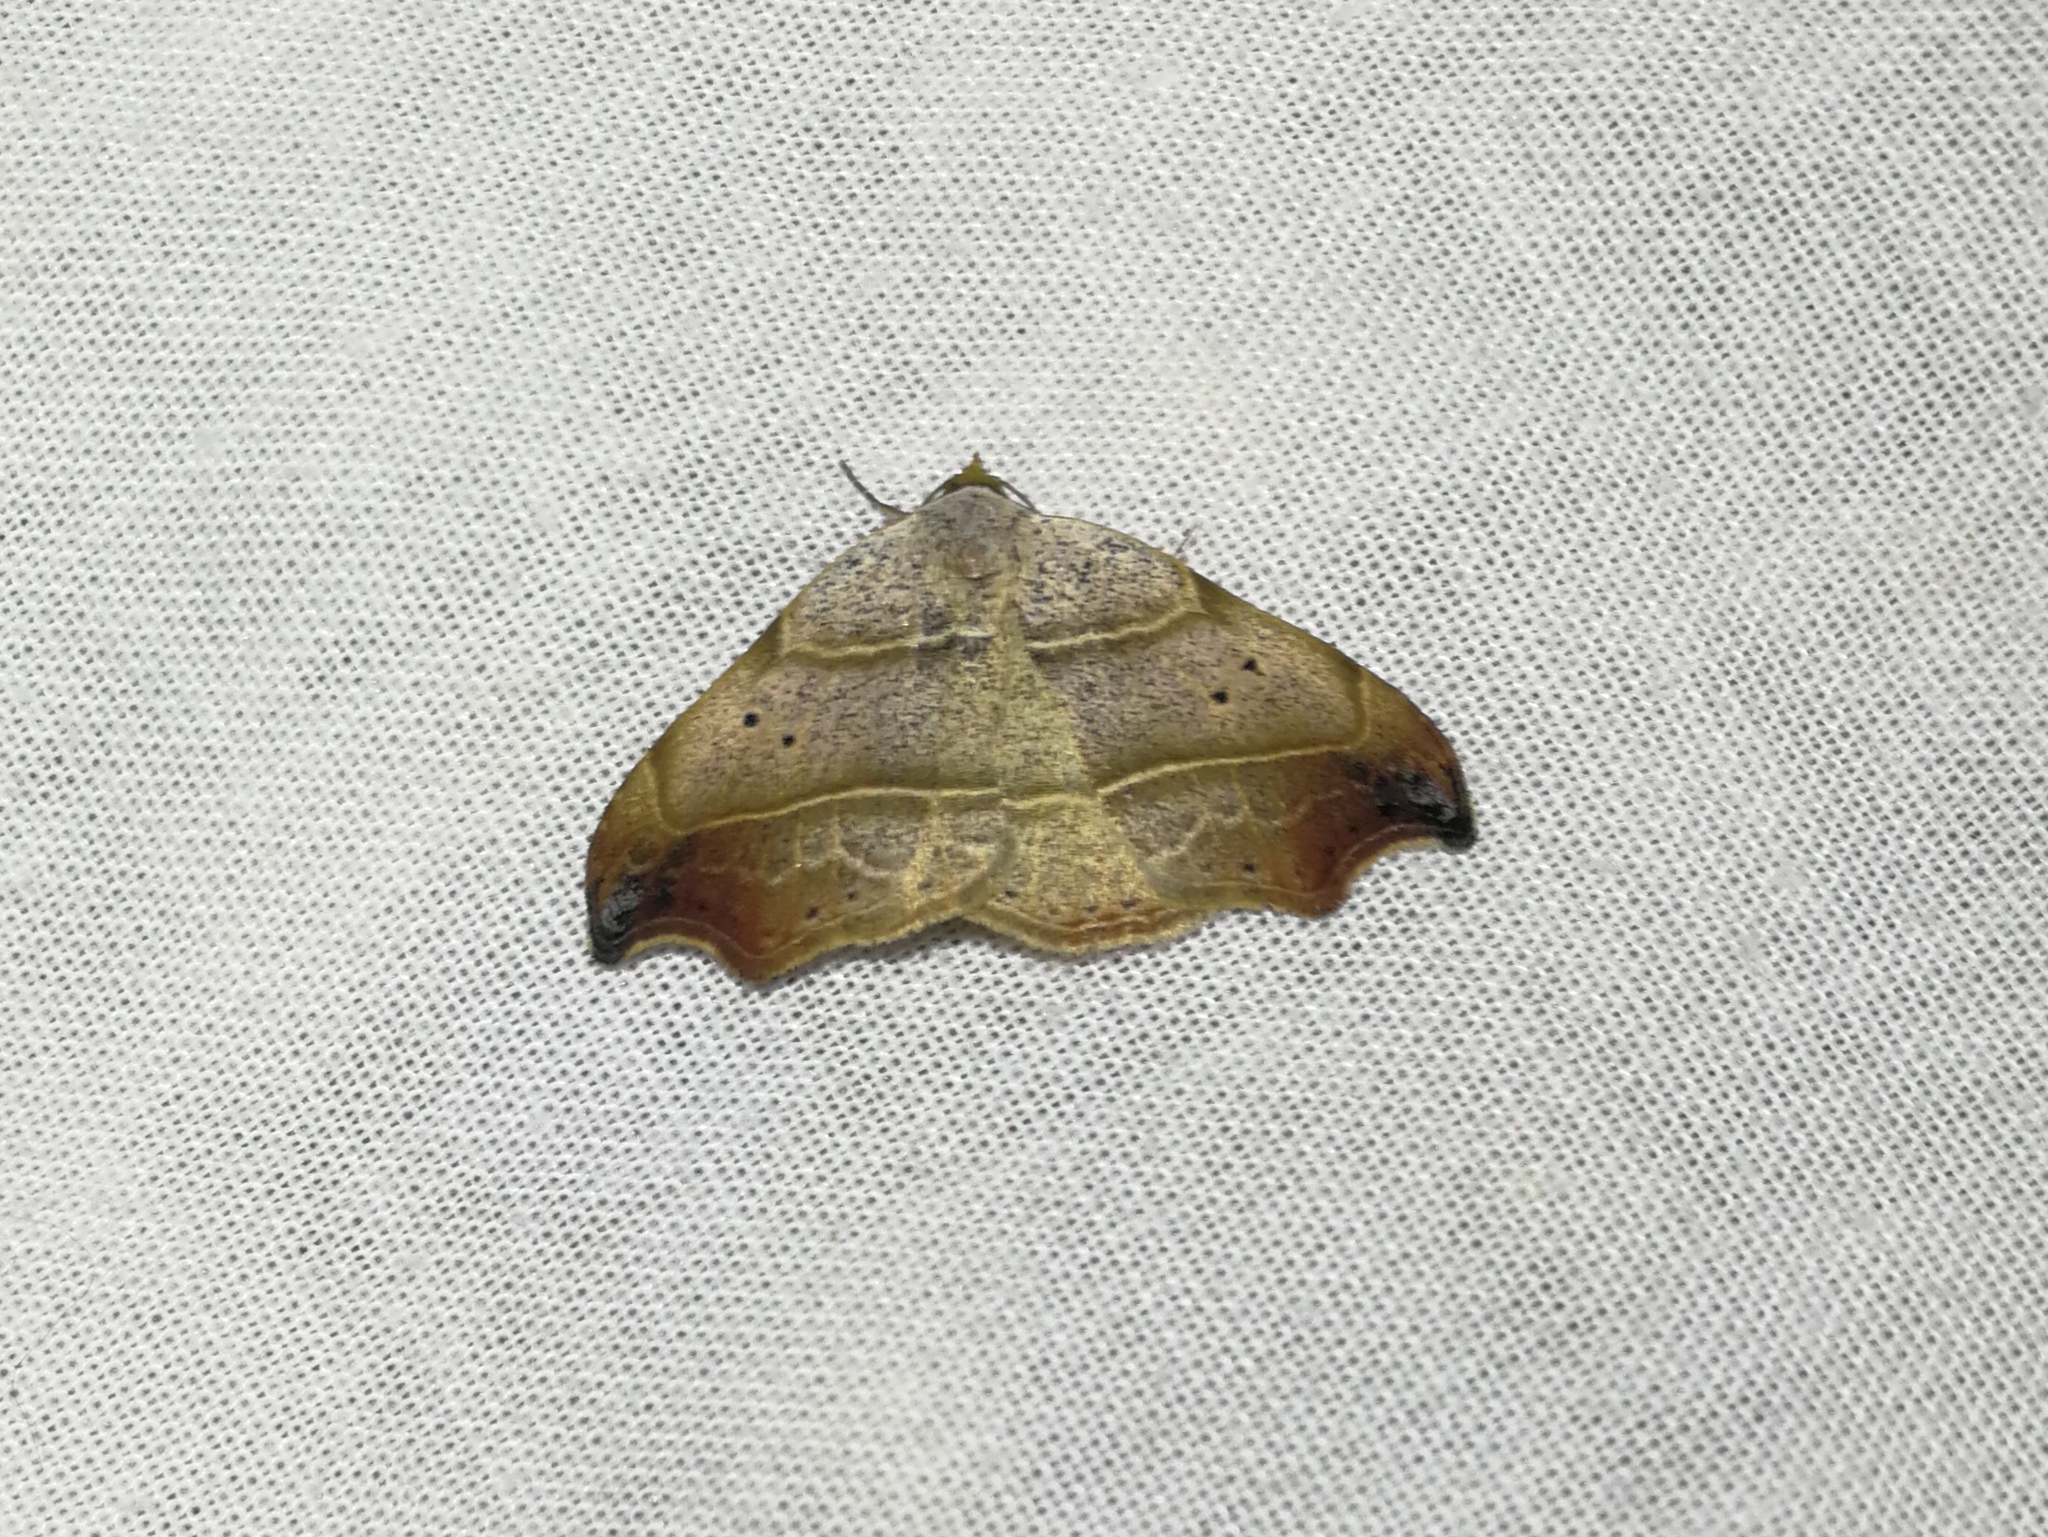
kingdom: Animalia
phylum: Arthropoda
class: Insecta
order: Lepidoptera
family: Erebidae
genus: Laspeyria
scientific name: Laspeyria flexula
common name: Beautiful hook-tip
